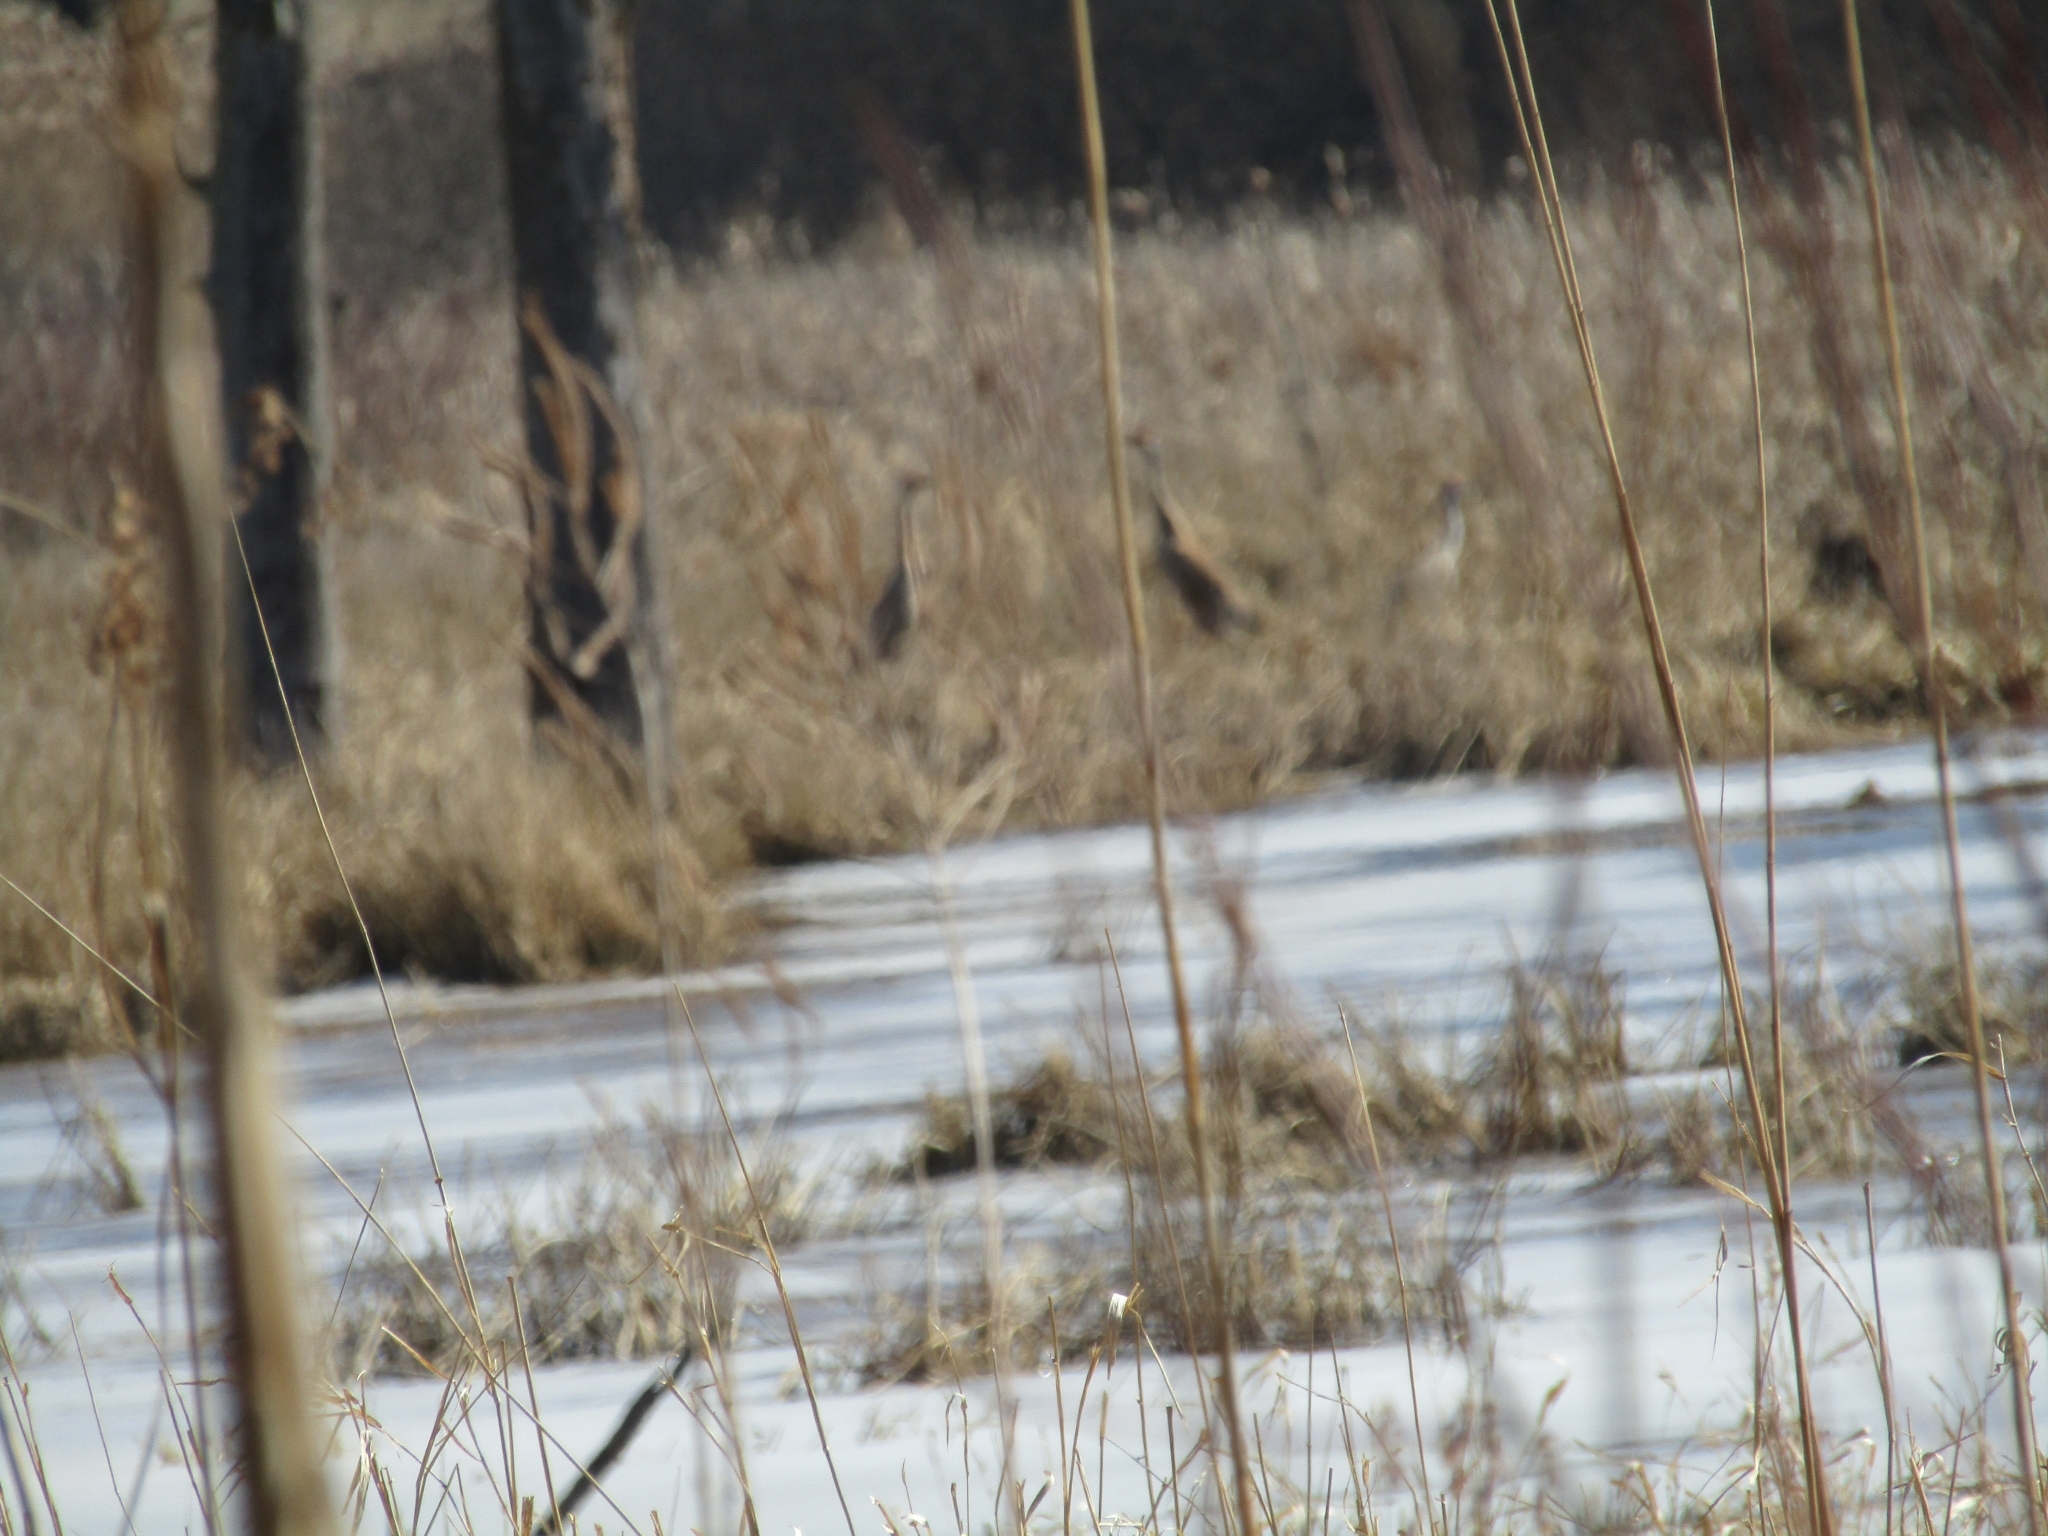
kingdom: Animalia
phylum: Chordata
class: Aves
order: Gruiformes
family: Gruidae
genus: Grus
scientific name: Grus canadensis
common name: Sandhill crane
